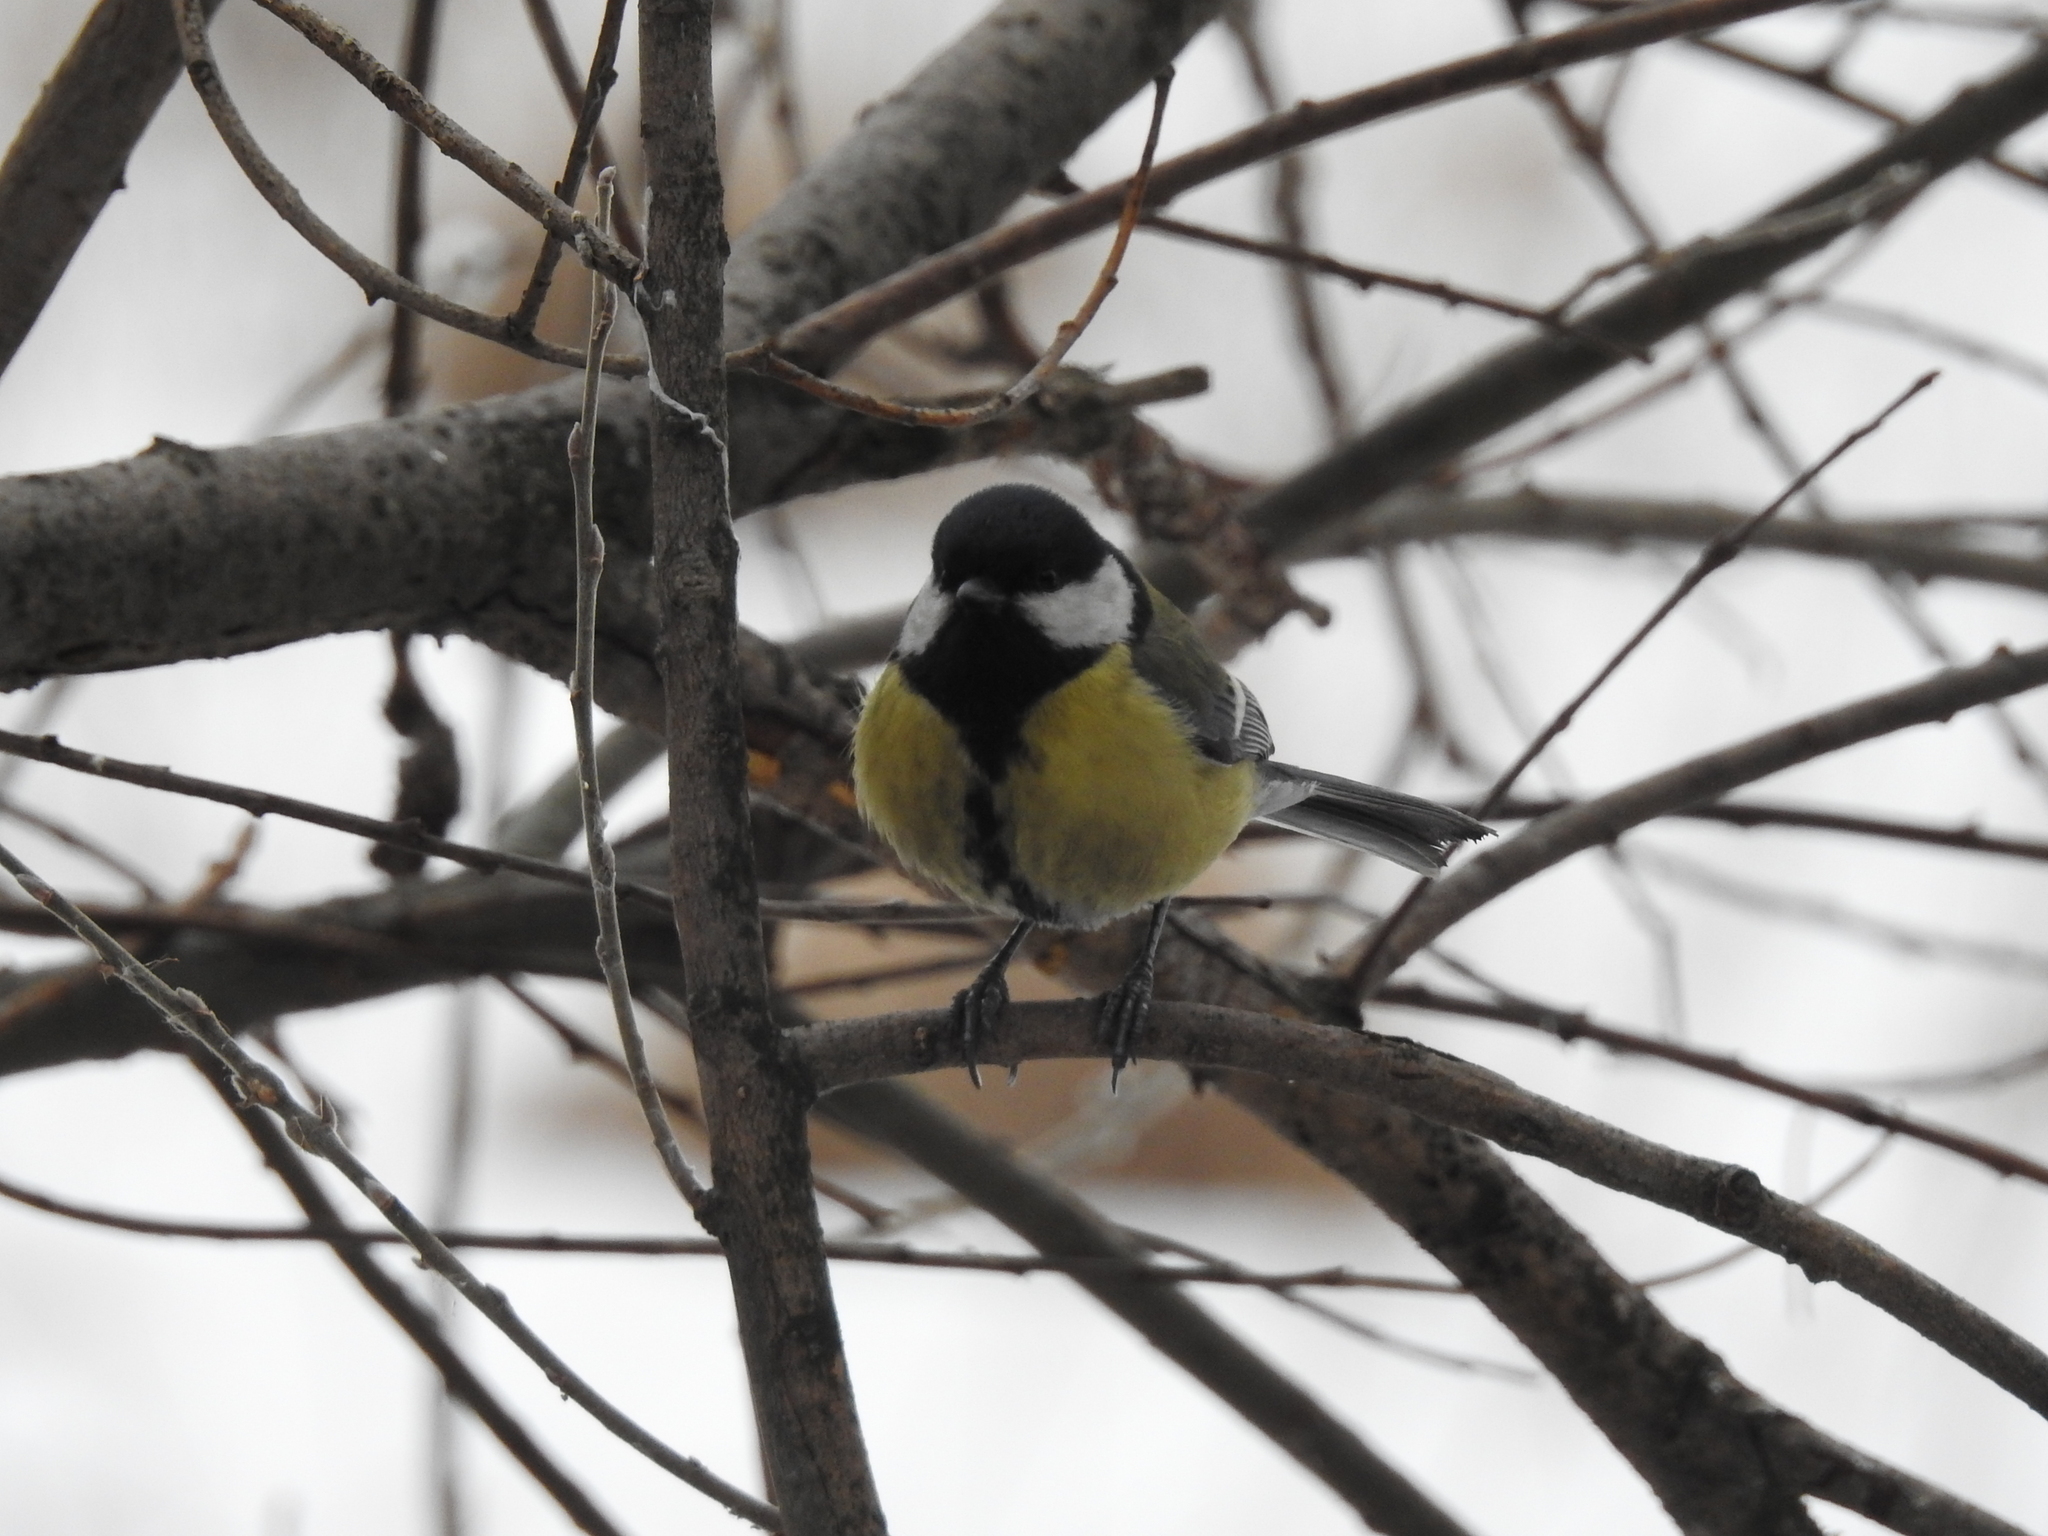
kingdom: Animalia
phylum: Chordata
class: Aves
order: Passeriformes
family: Paridae
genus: Parus
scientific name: Parus major
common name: Great tit
